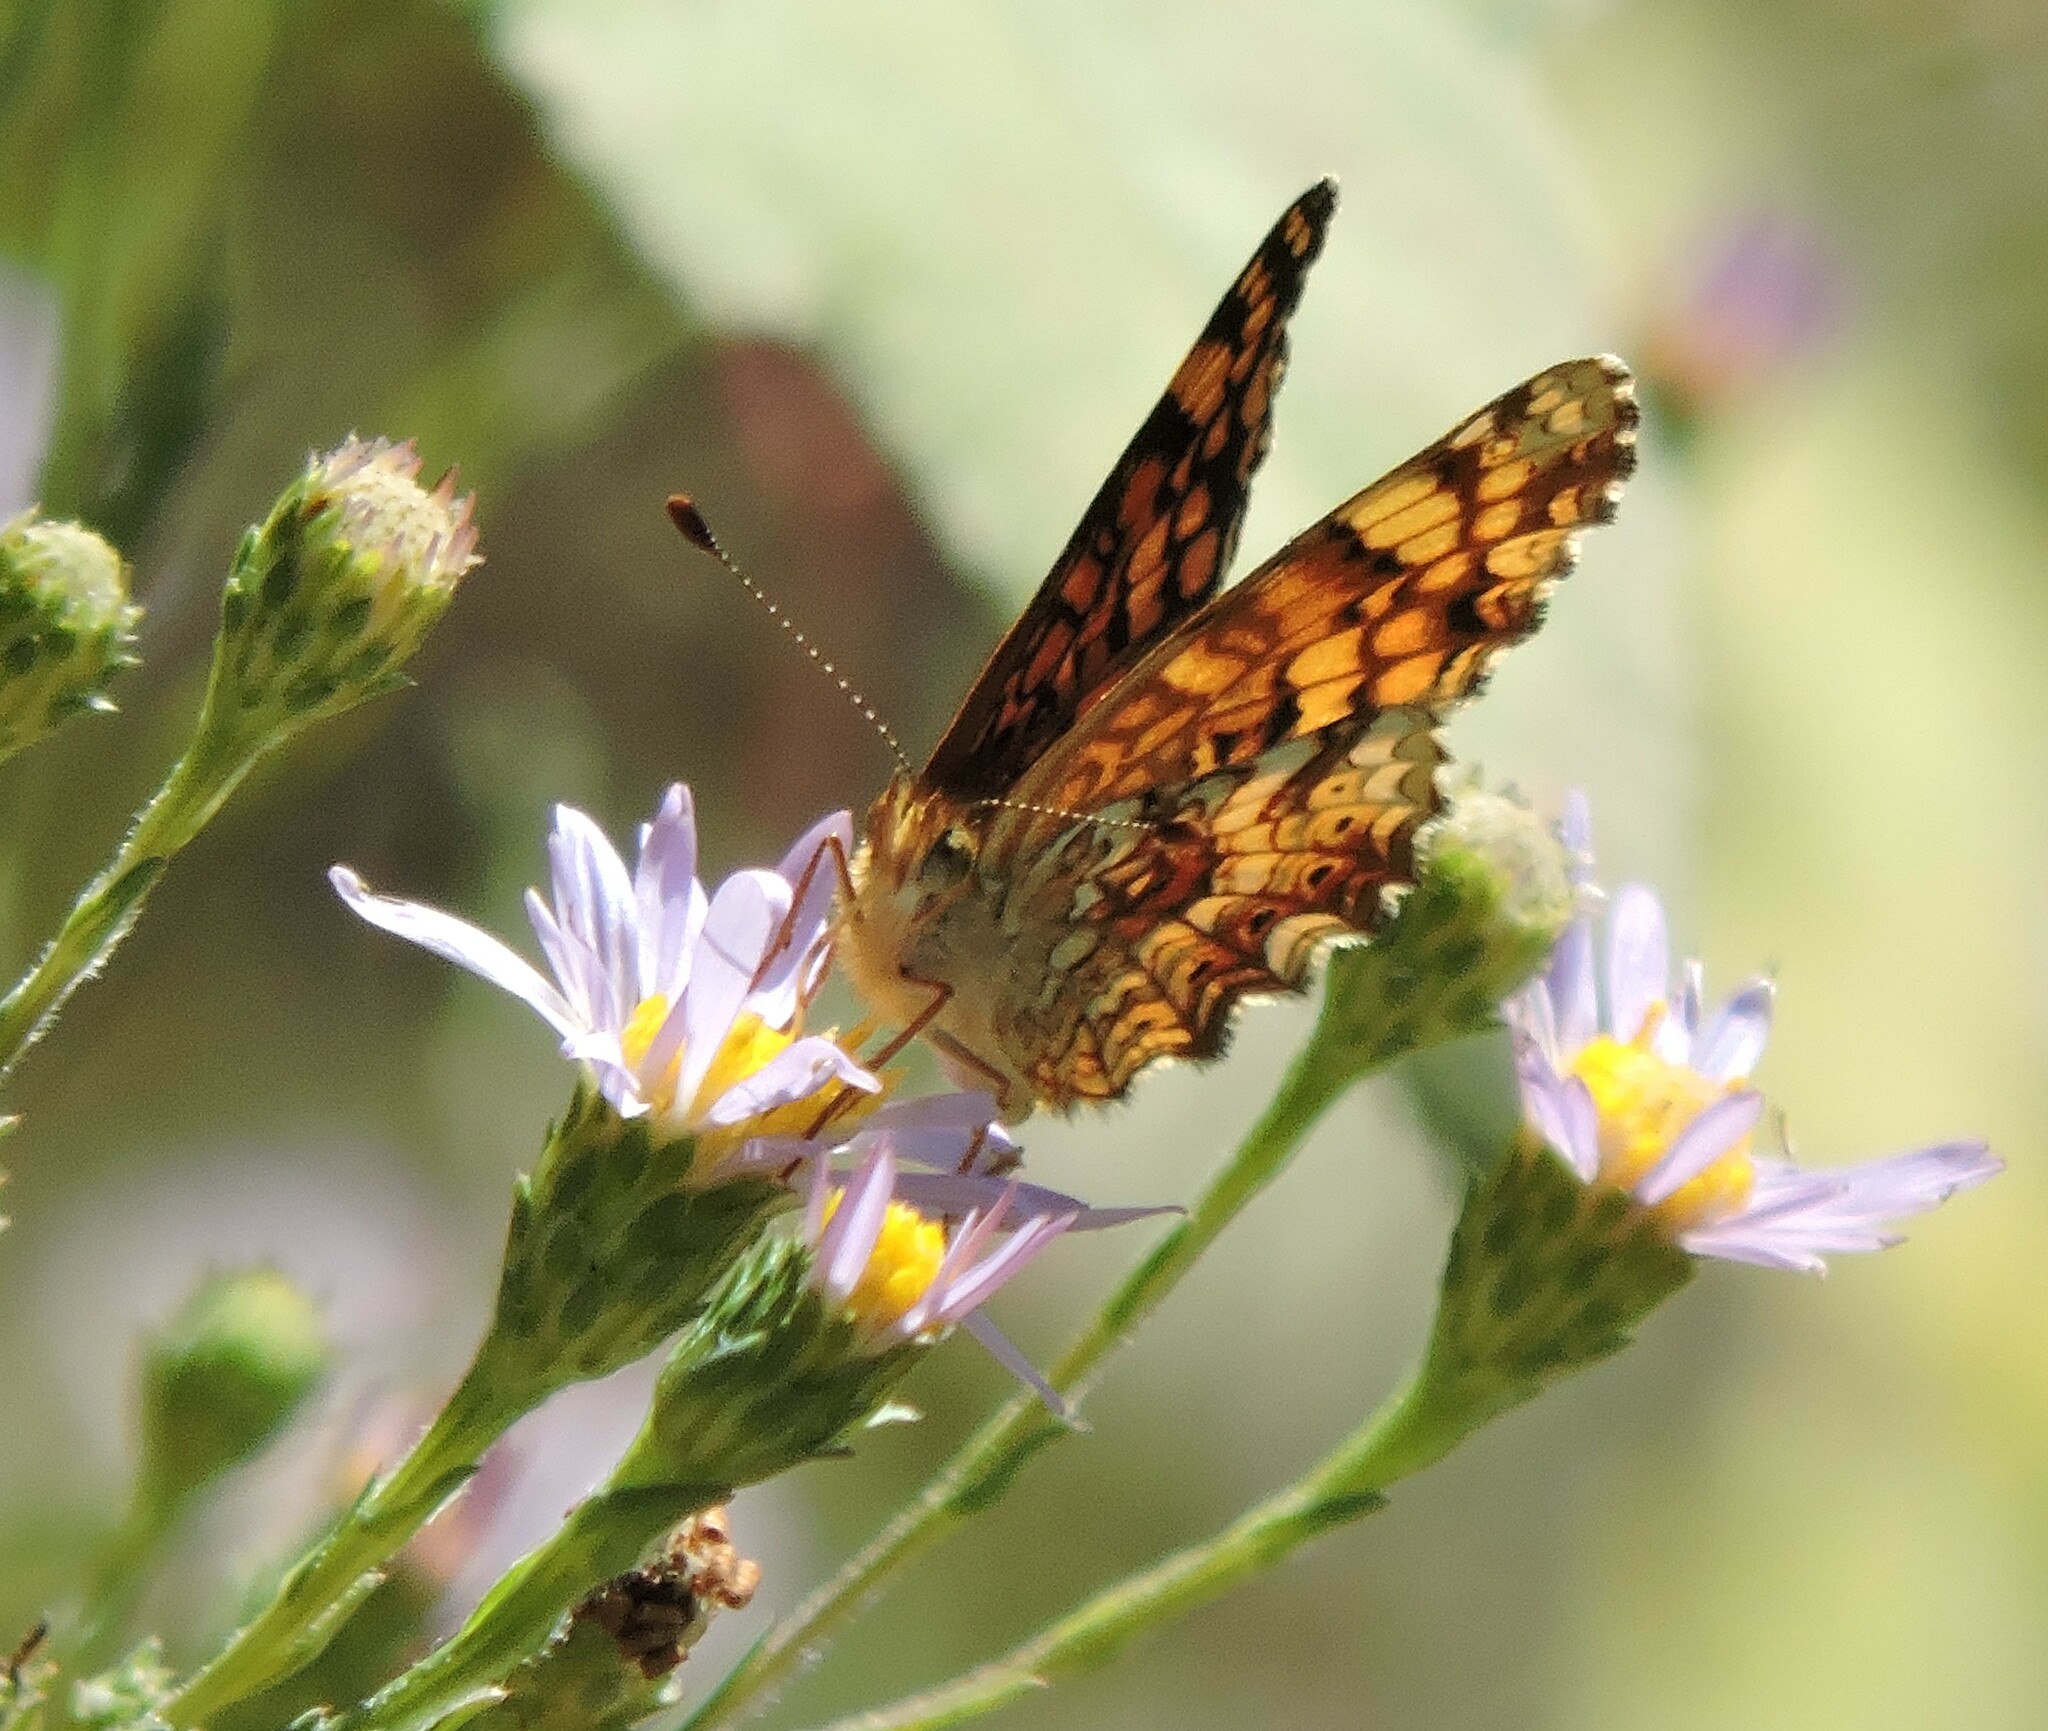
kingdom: Animalia
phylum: Arthropoda
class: Insecta
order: Lepidoptera
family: Nymphalidae
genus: Eresia
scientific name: Eresia aveyrona
